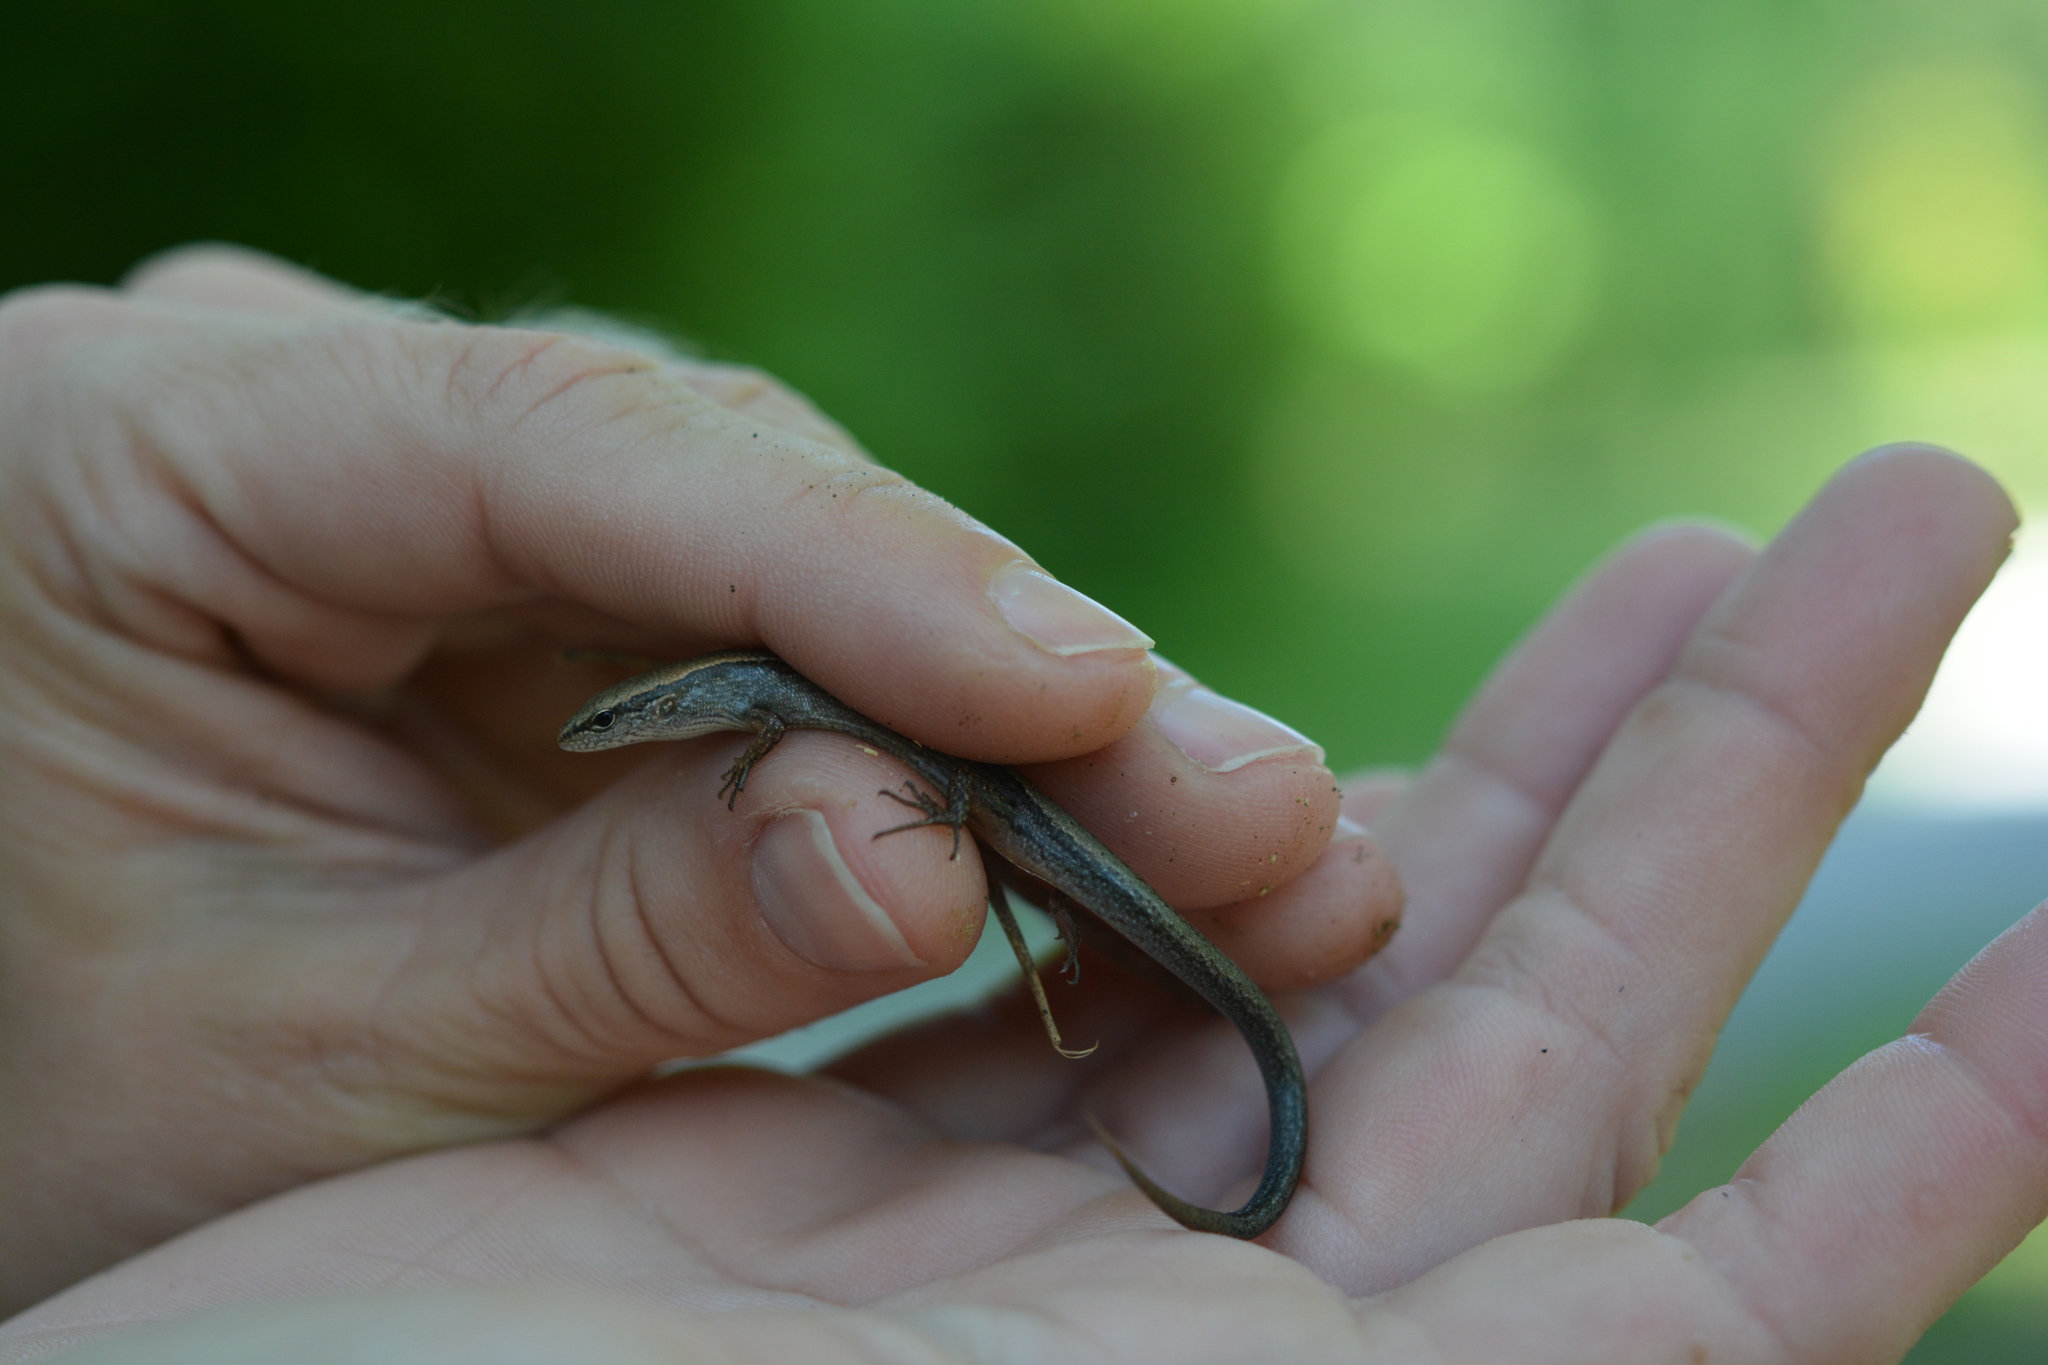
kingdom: Animalia
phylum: Chordata
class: Squamata
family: Scincidae
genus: Scincella
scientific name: Scincella lateralis
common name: Ground skink
